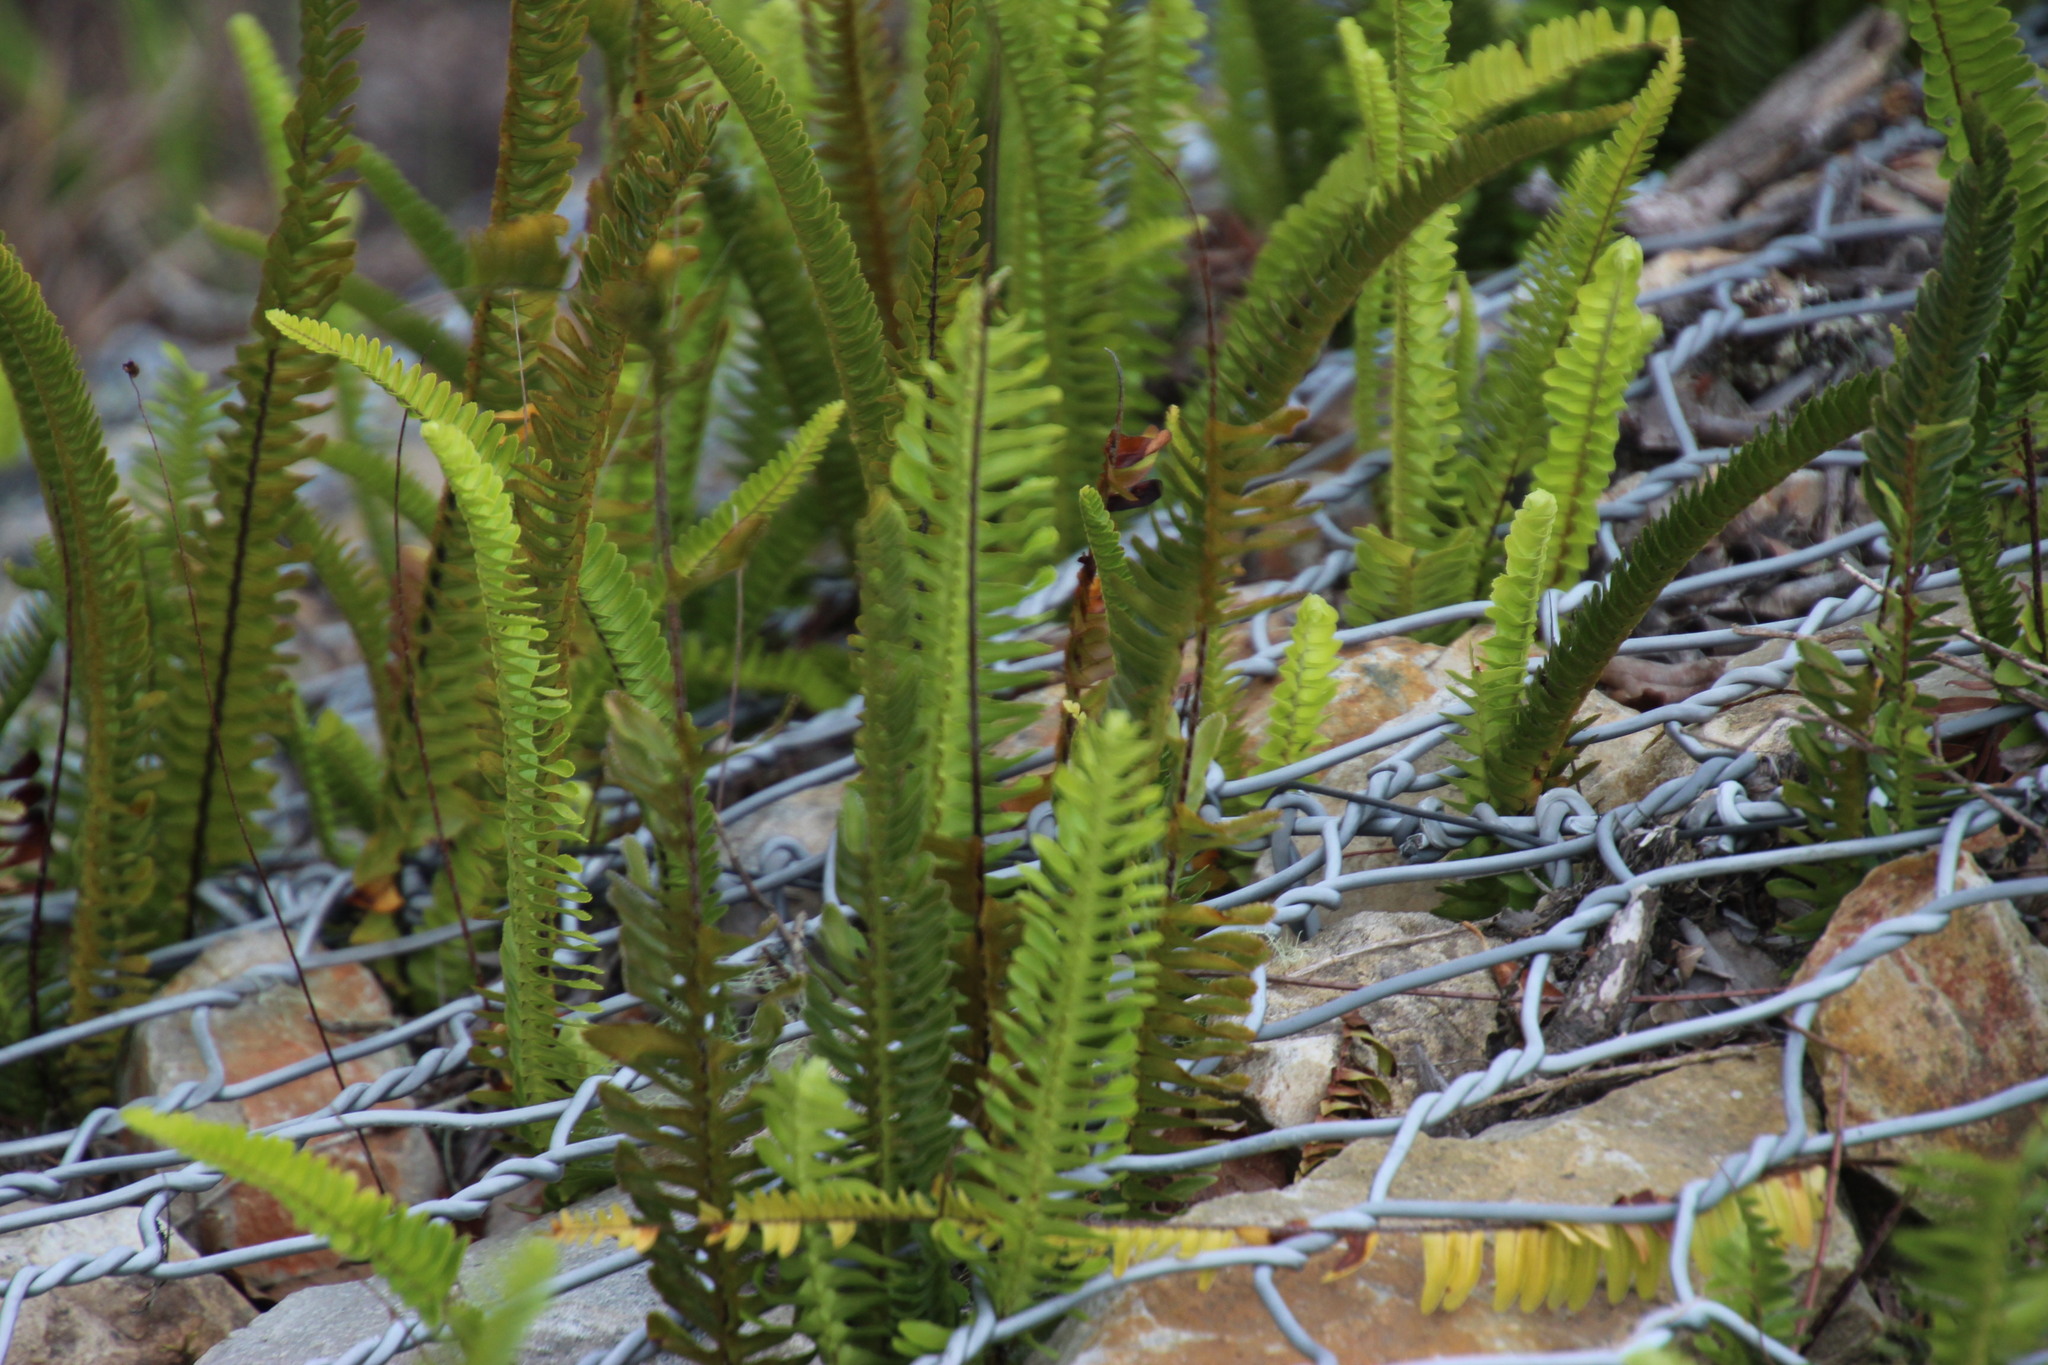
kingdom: Plantae
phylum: Tracheophyta
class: Polypodiopsida
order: Polypodiales
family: Nephrolepidaceae
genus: Nephrolepis
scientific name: Nephrolepis cordifolia
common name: Narrow swordfern
